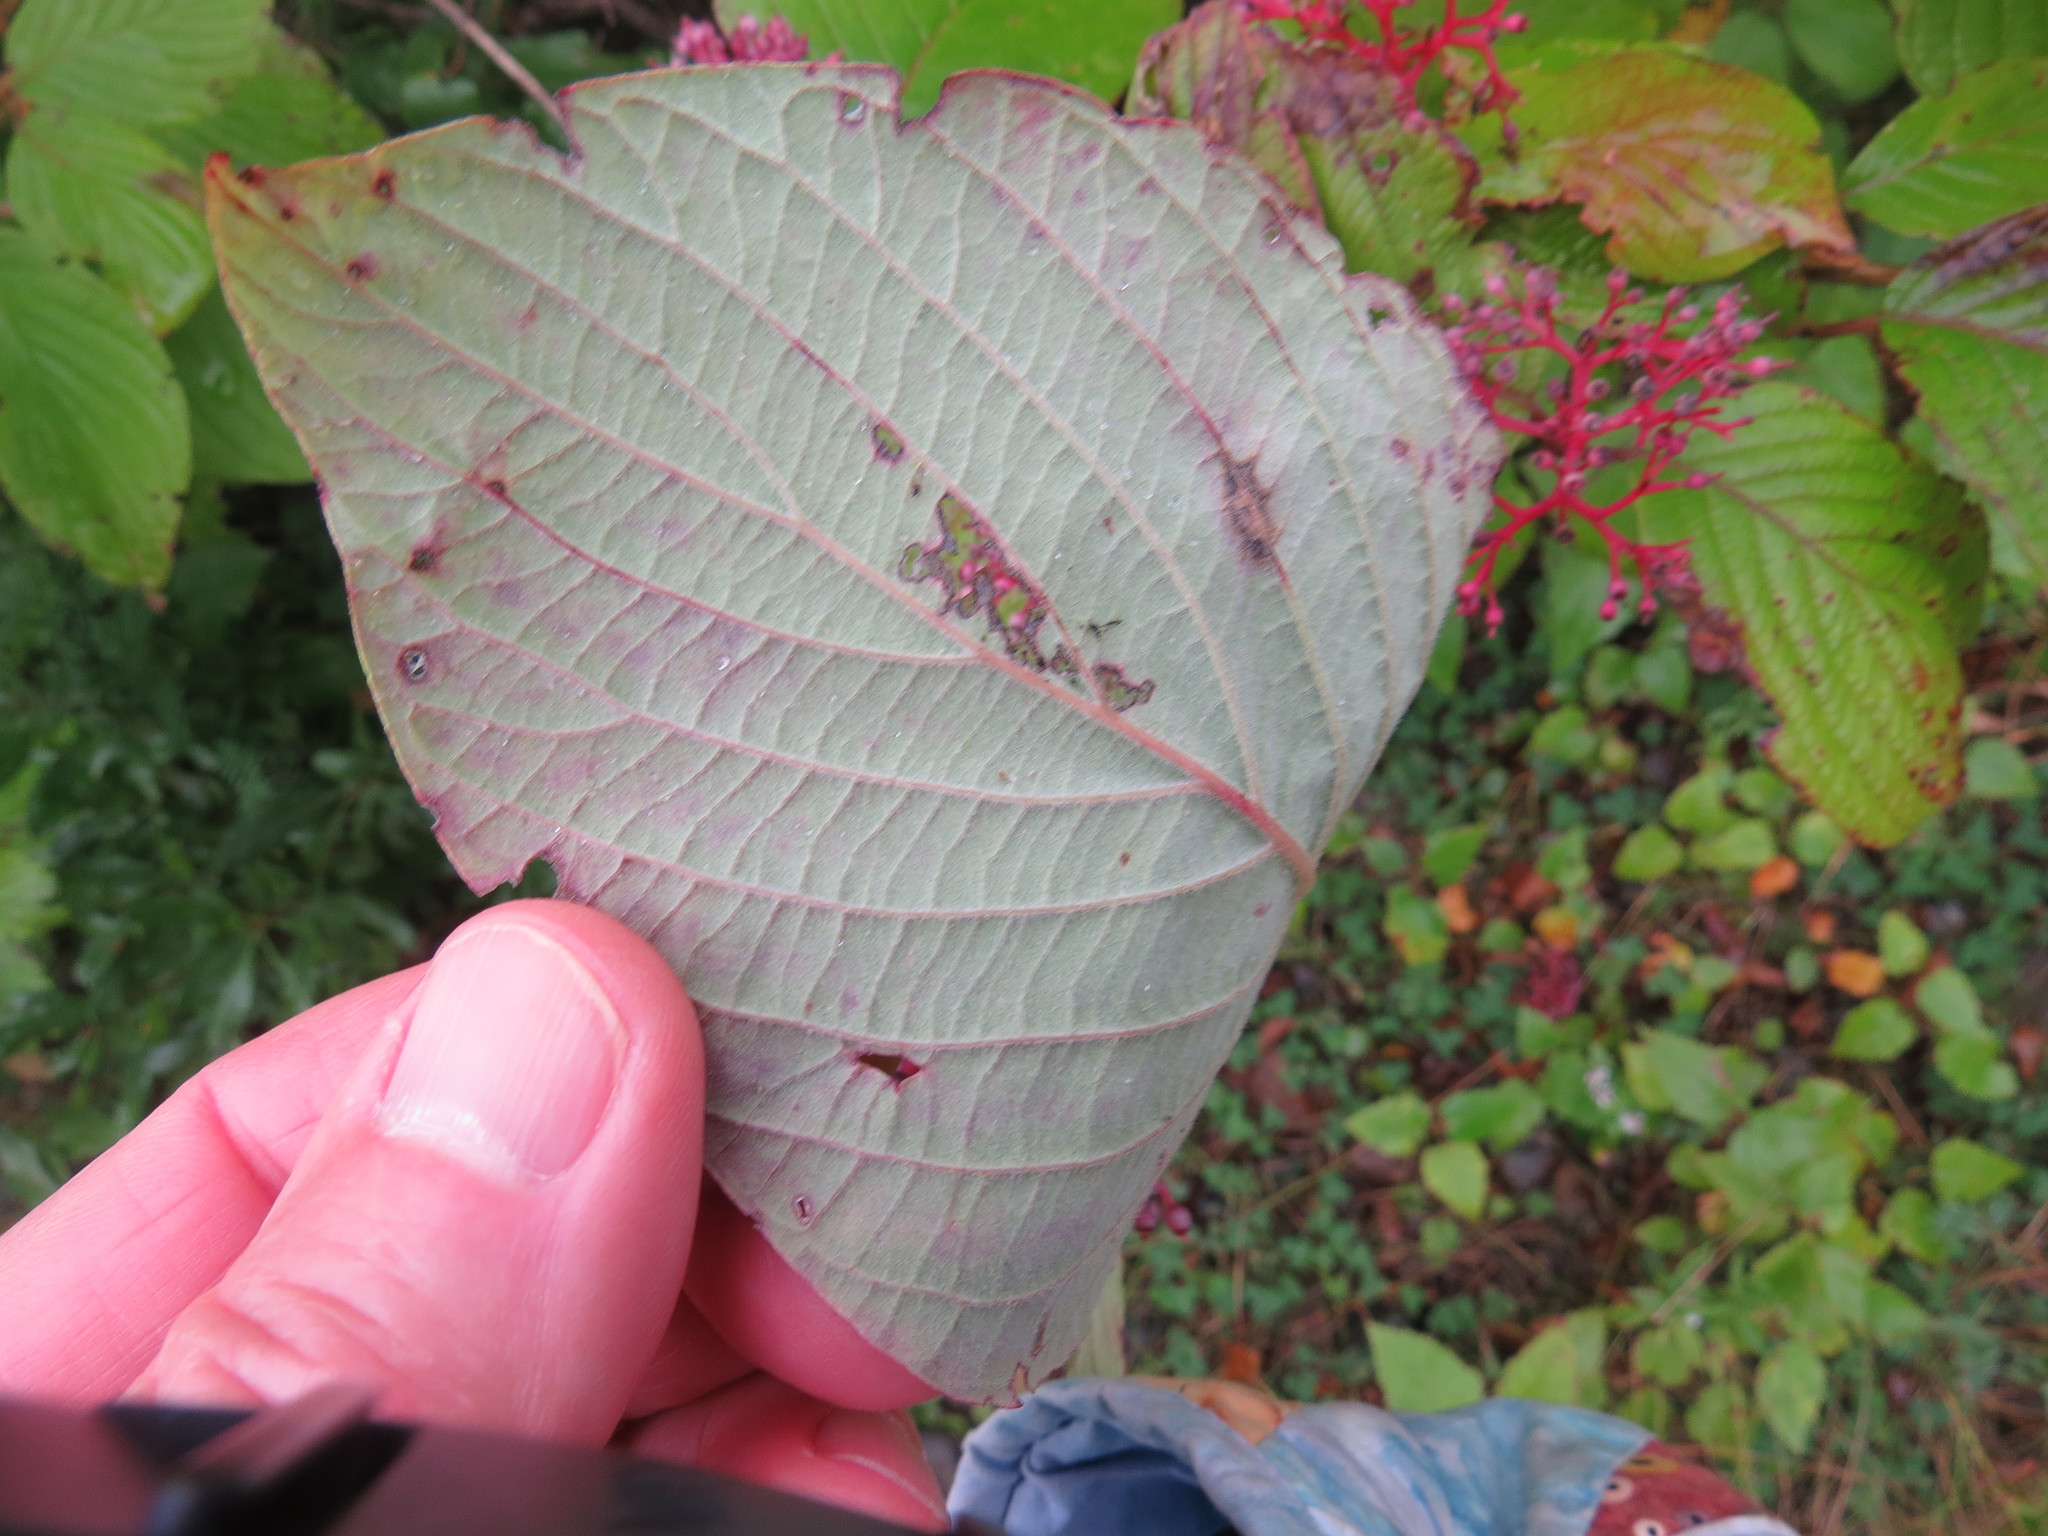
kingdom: Plantae
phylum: Tracheophyta
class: Magnoliopsida
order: Cornales
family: Cornaceae
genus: Cornus
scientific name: Cornus rugosa
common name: Round-leaf dogwood
